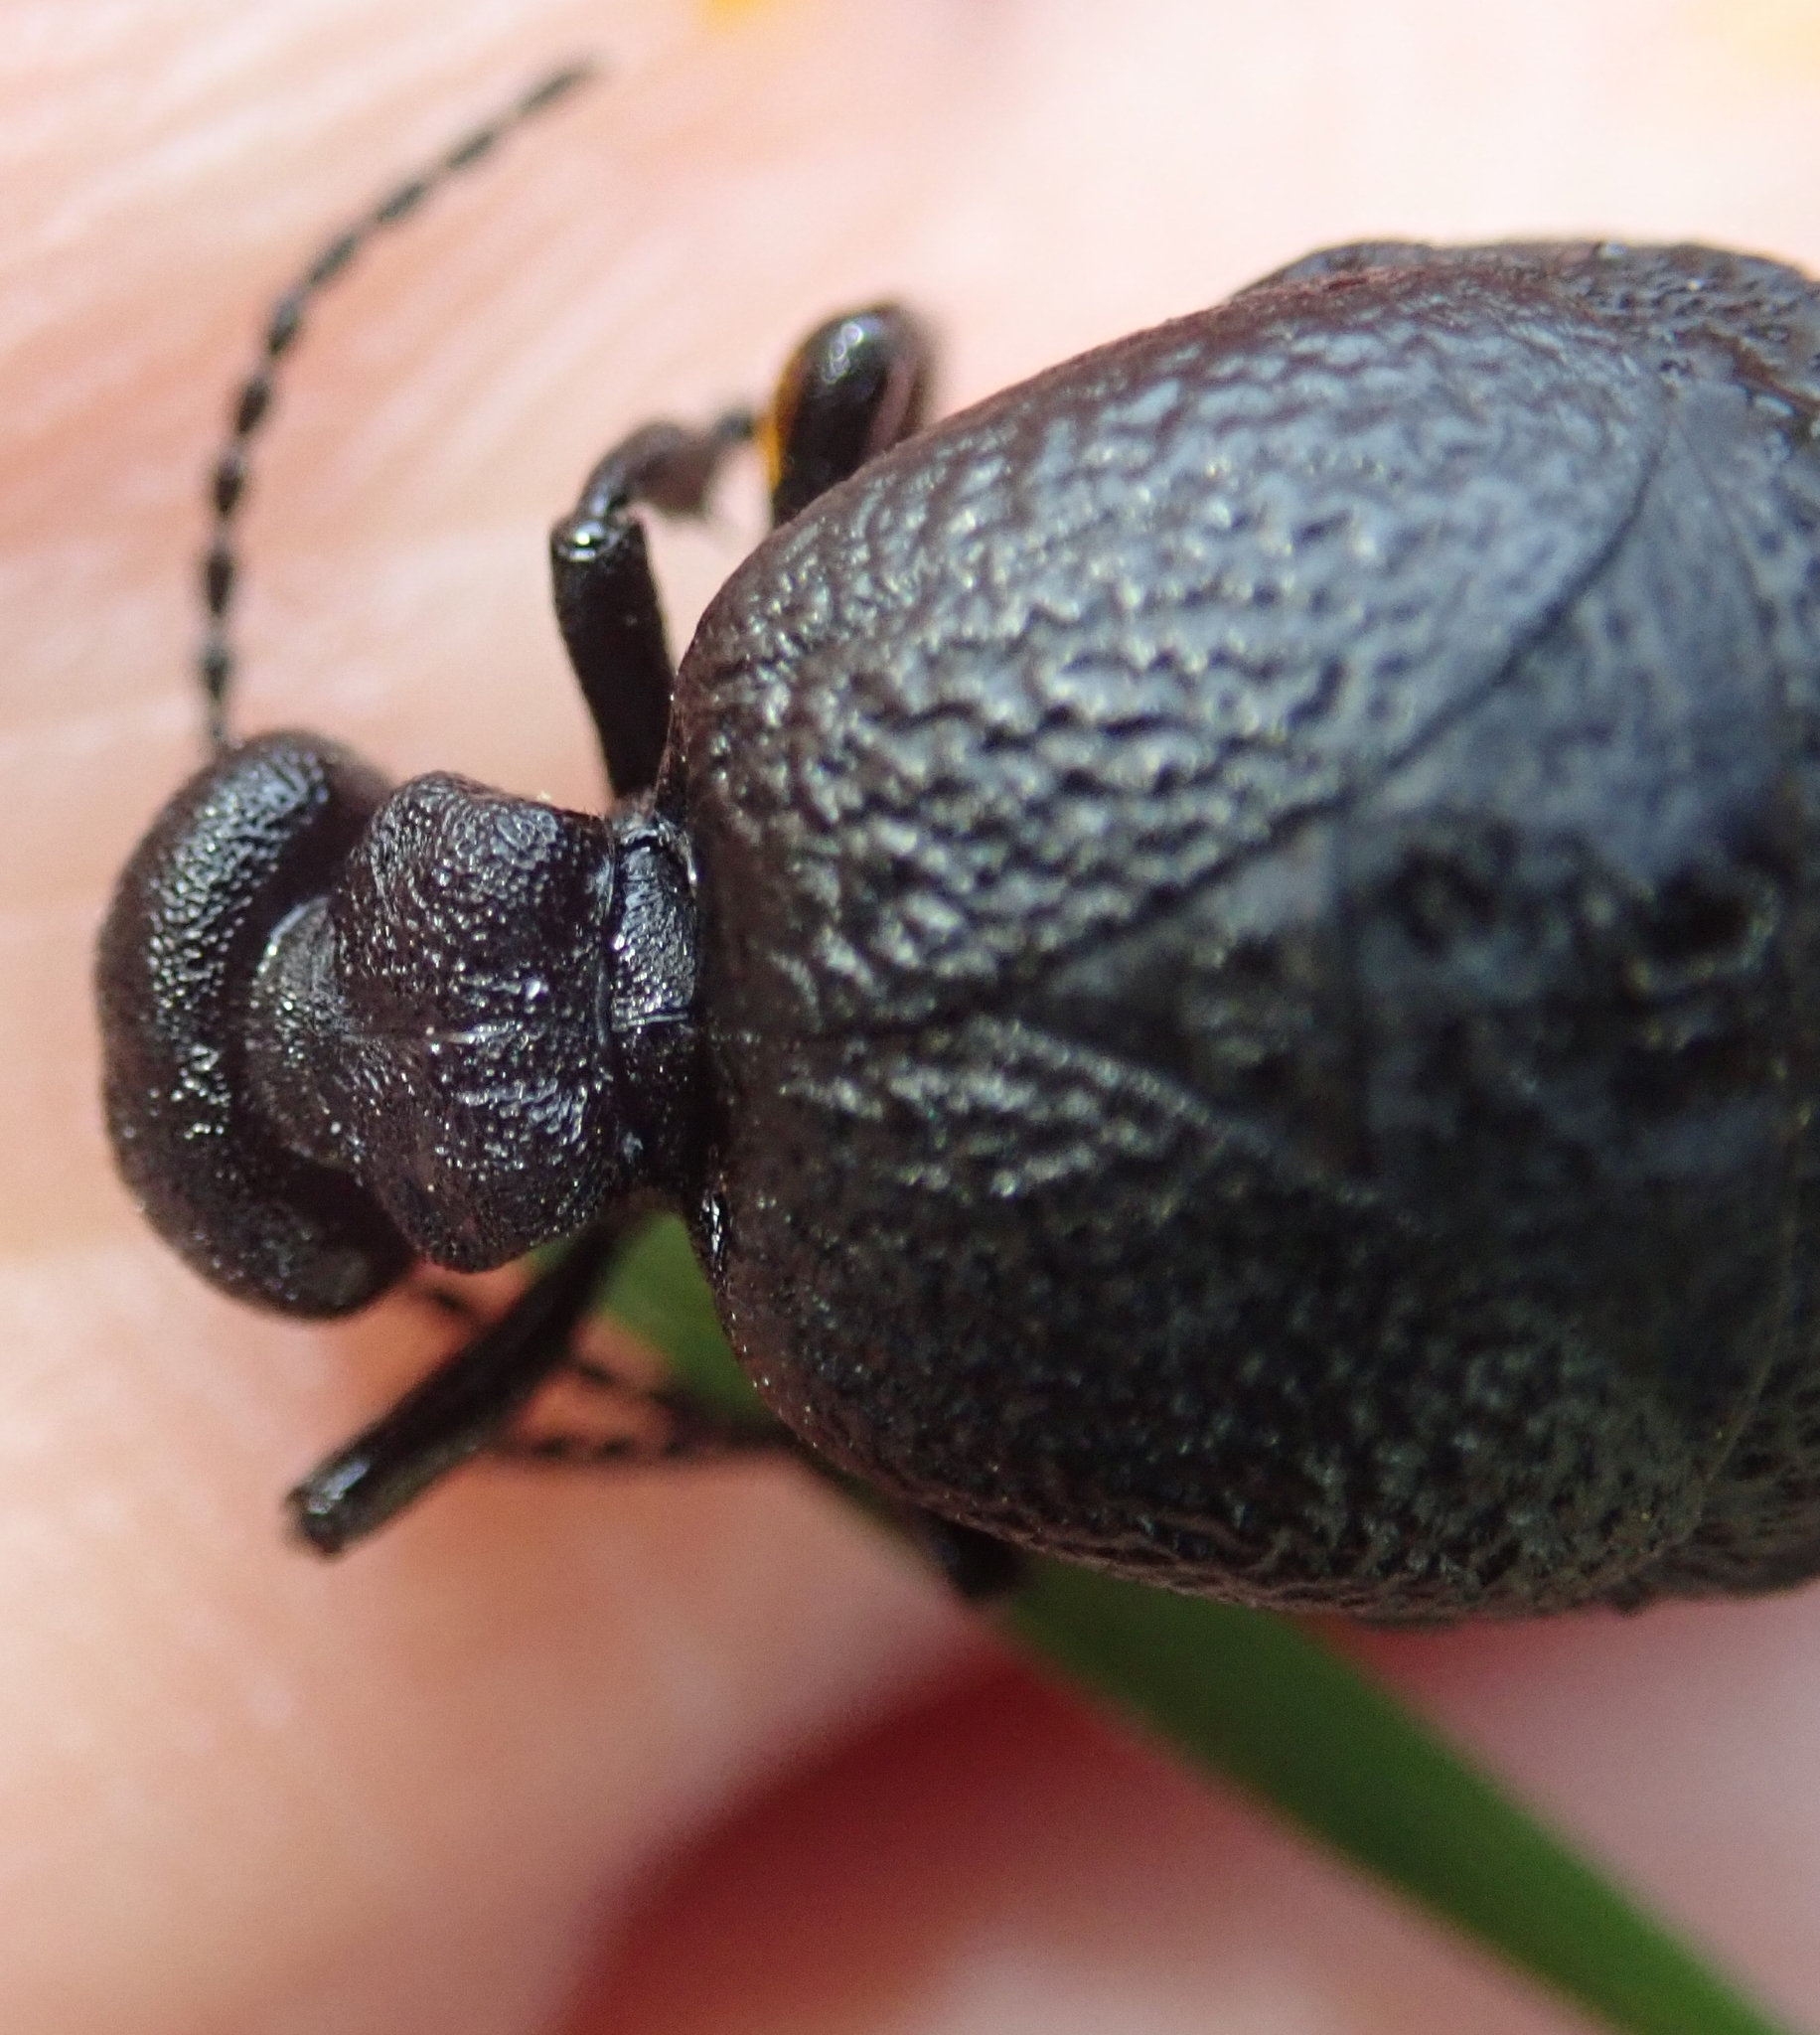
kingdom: Animalia
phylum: Arthropoda
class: Insecta
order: Coleoptera
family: Meloidae
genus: Meloe
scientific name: Meloe rugosus
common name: Rugged oil-beetle
